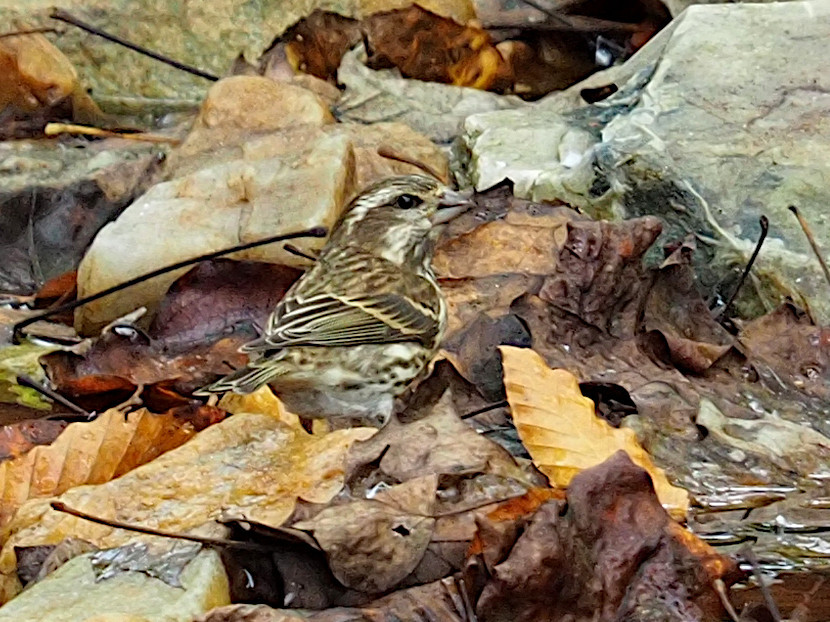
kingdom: Animalia
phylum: Chordata
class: Aves
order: Passeriformes
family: Fringillidae
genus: Haemorhous
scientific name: Haemorhous purpureus
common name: Purple finch
